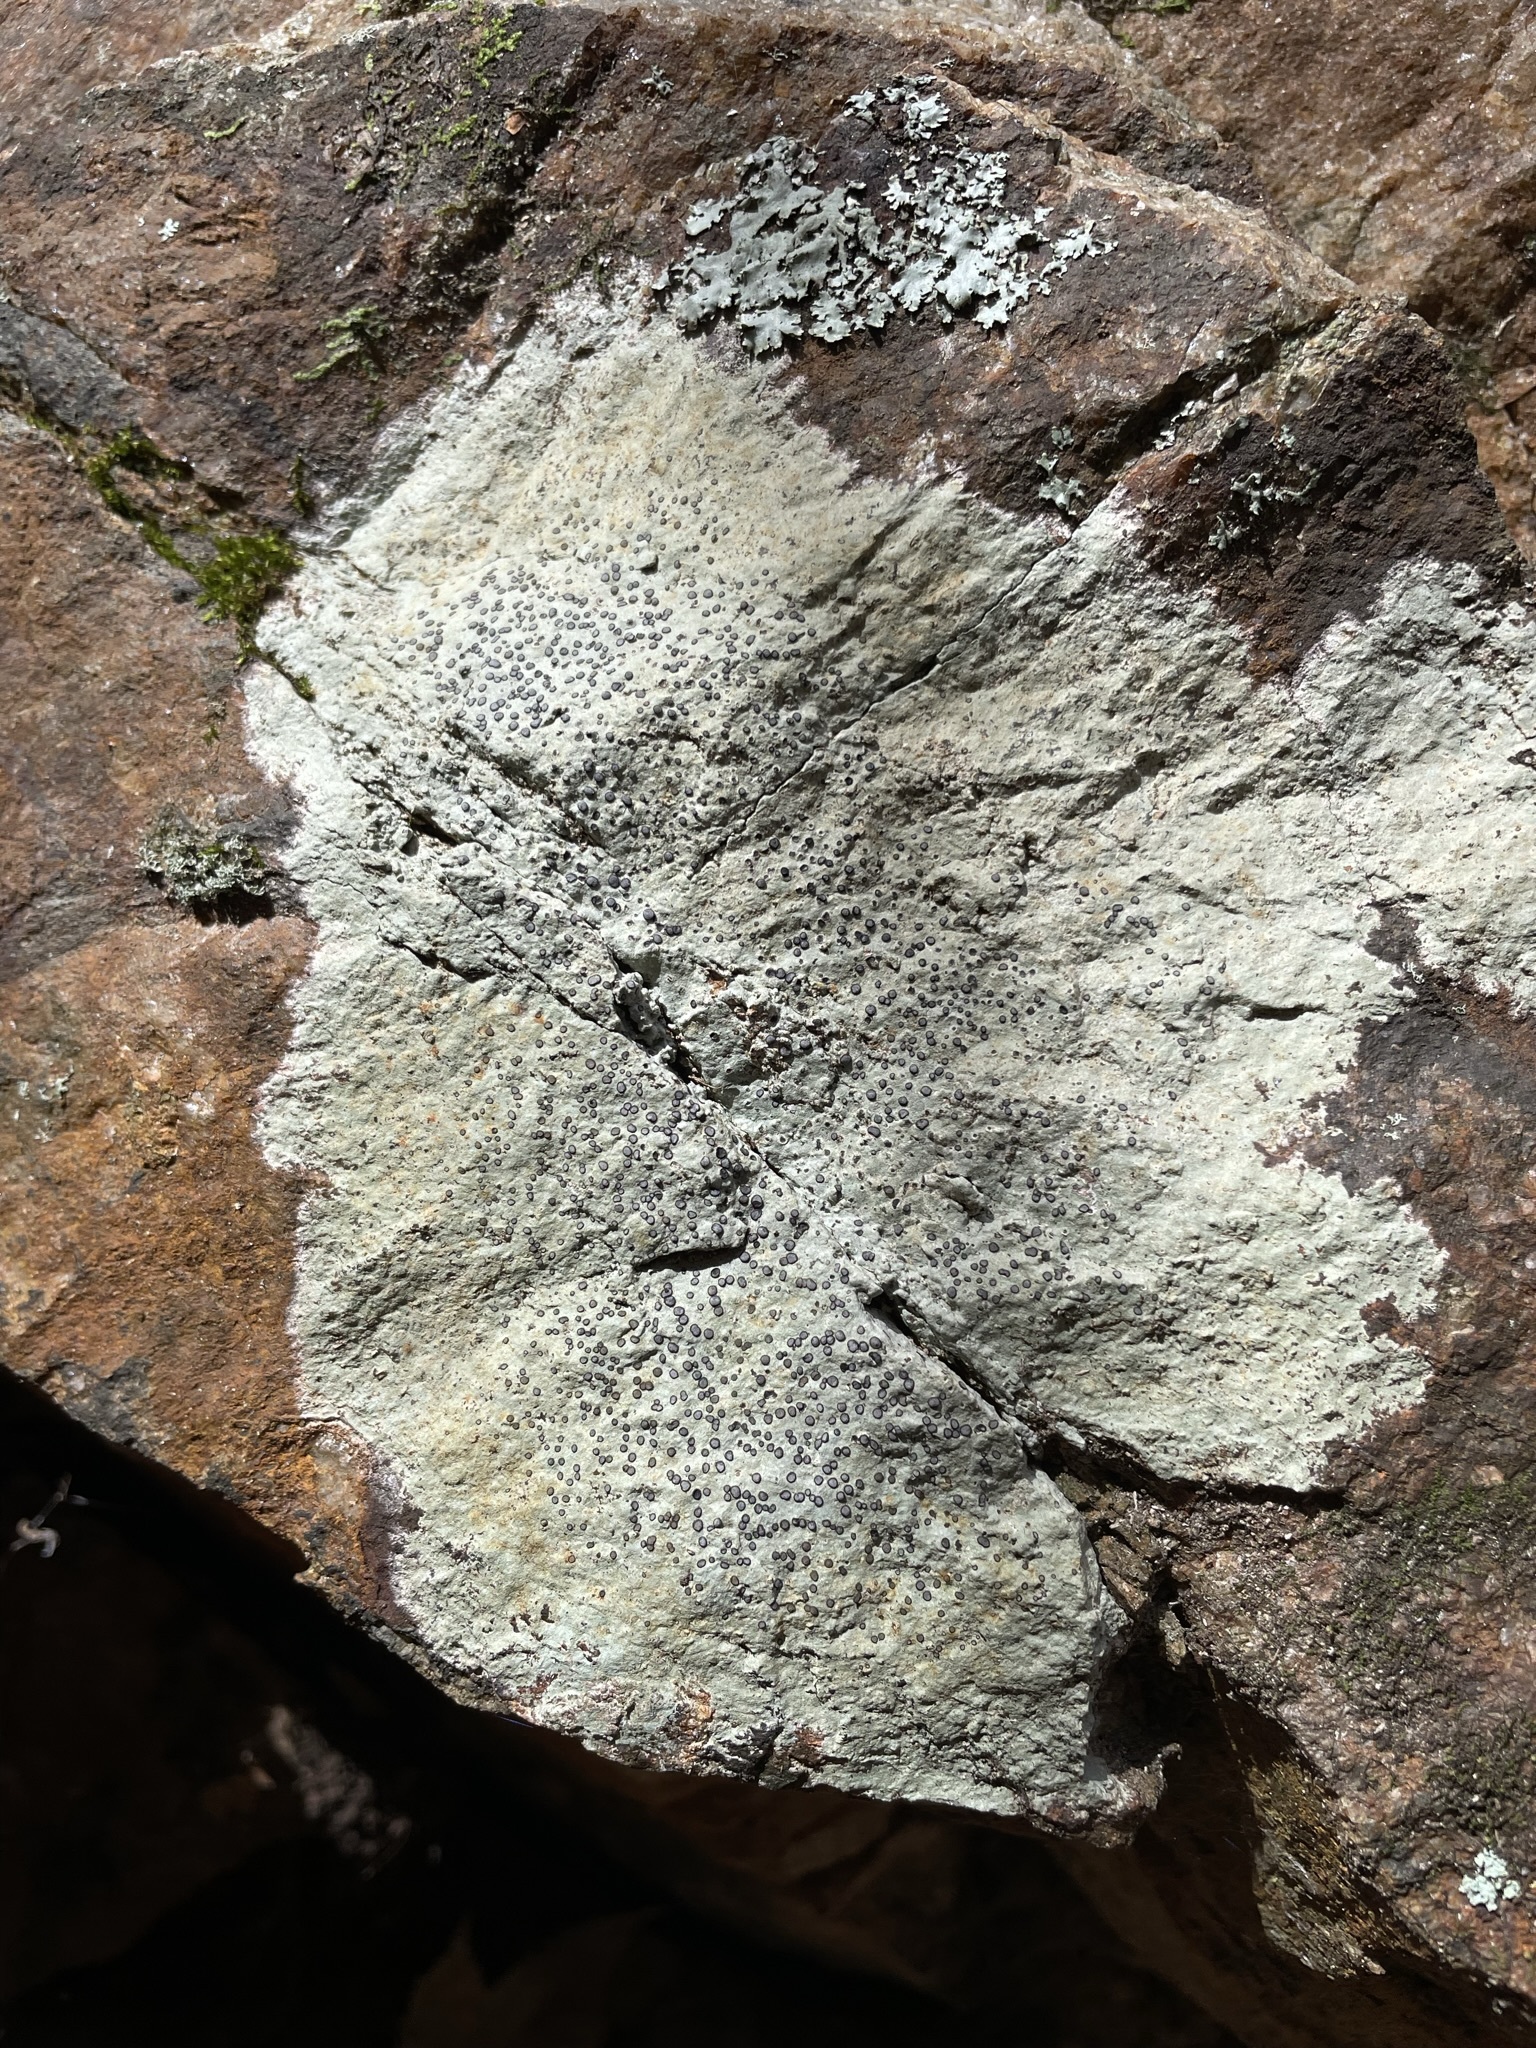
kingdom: Fungi
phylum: Ascomycota
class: Lecanoromycetes
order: Lecideales
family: Lecideaceae
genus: Porpidia
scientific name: Porpidia albocaerulescens
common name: Smokey-eyed boulder lichen
